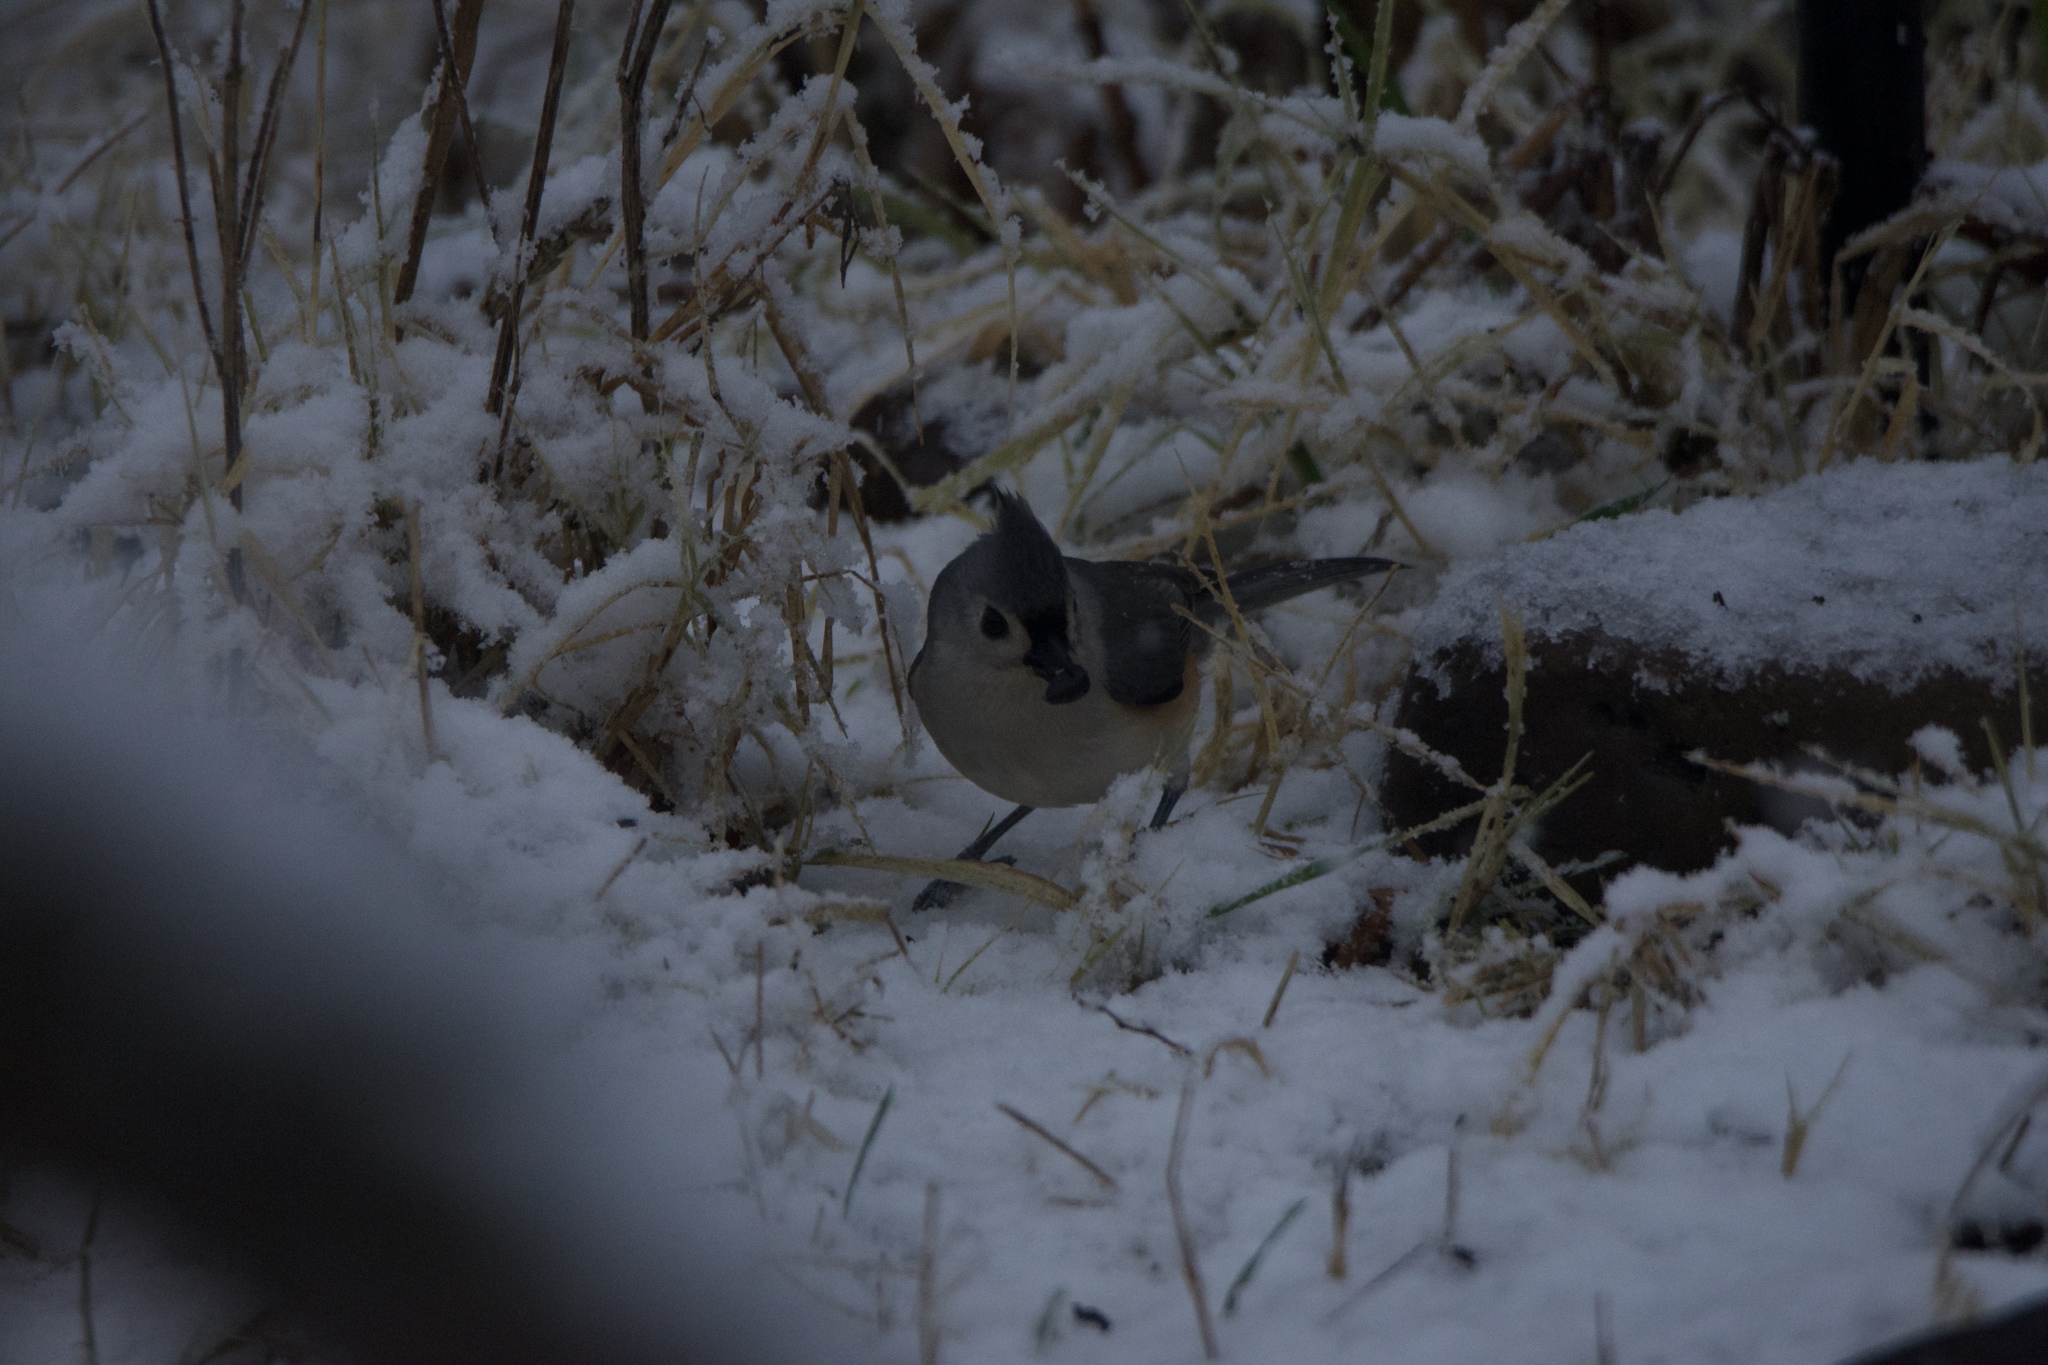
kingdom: Animalia
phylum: Chordata
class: Aves
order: Passeriformes
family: Paridae
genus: Baeolophus
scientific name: Baeolophus bicolor
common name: Tufted titmouse
